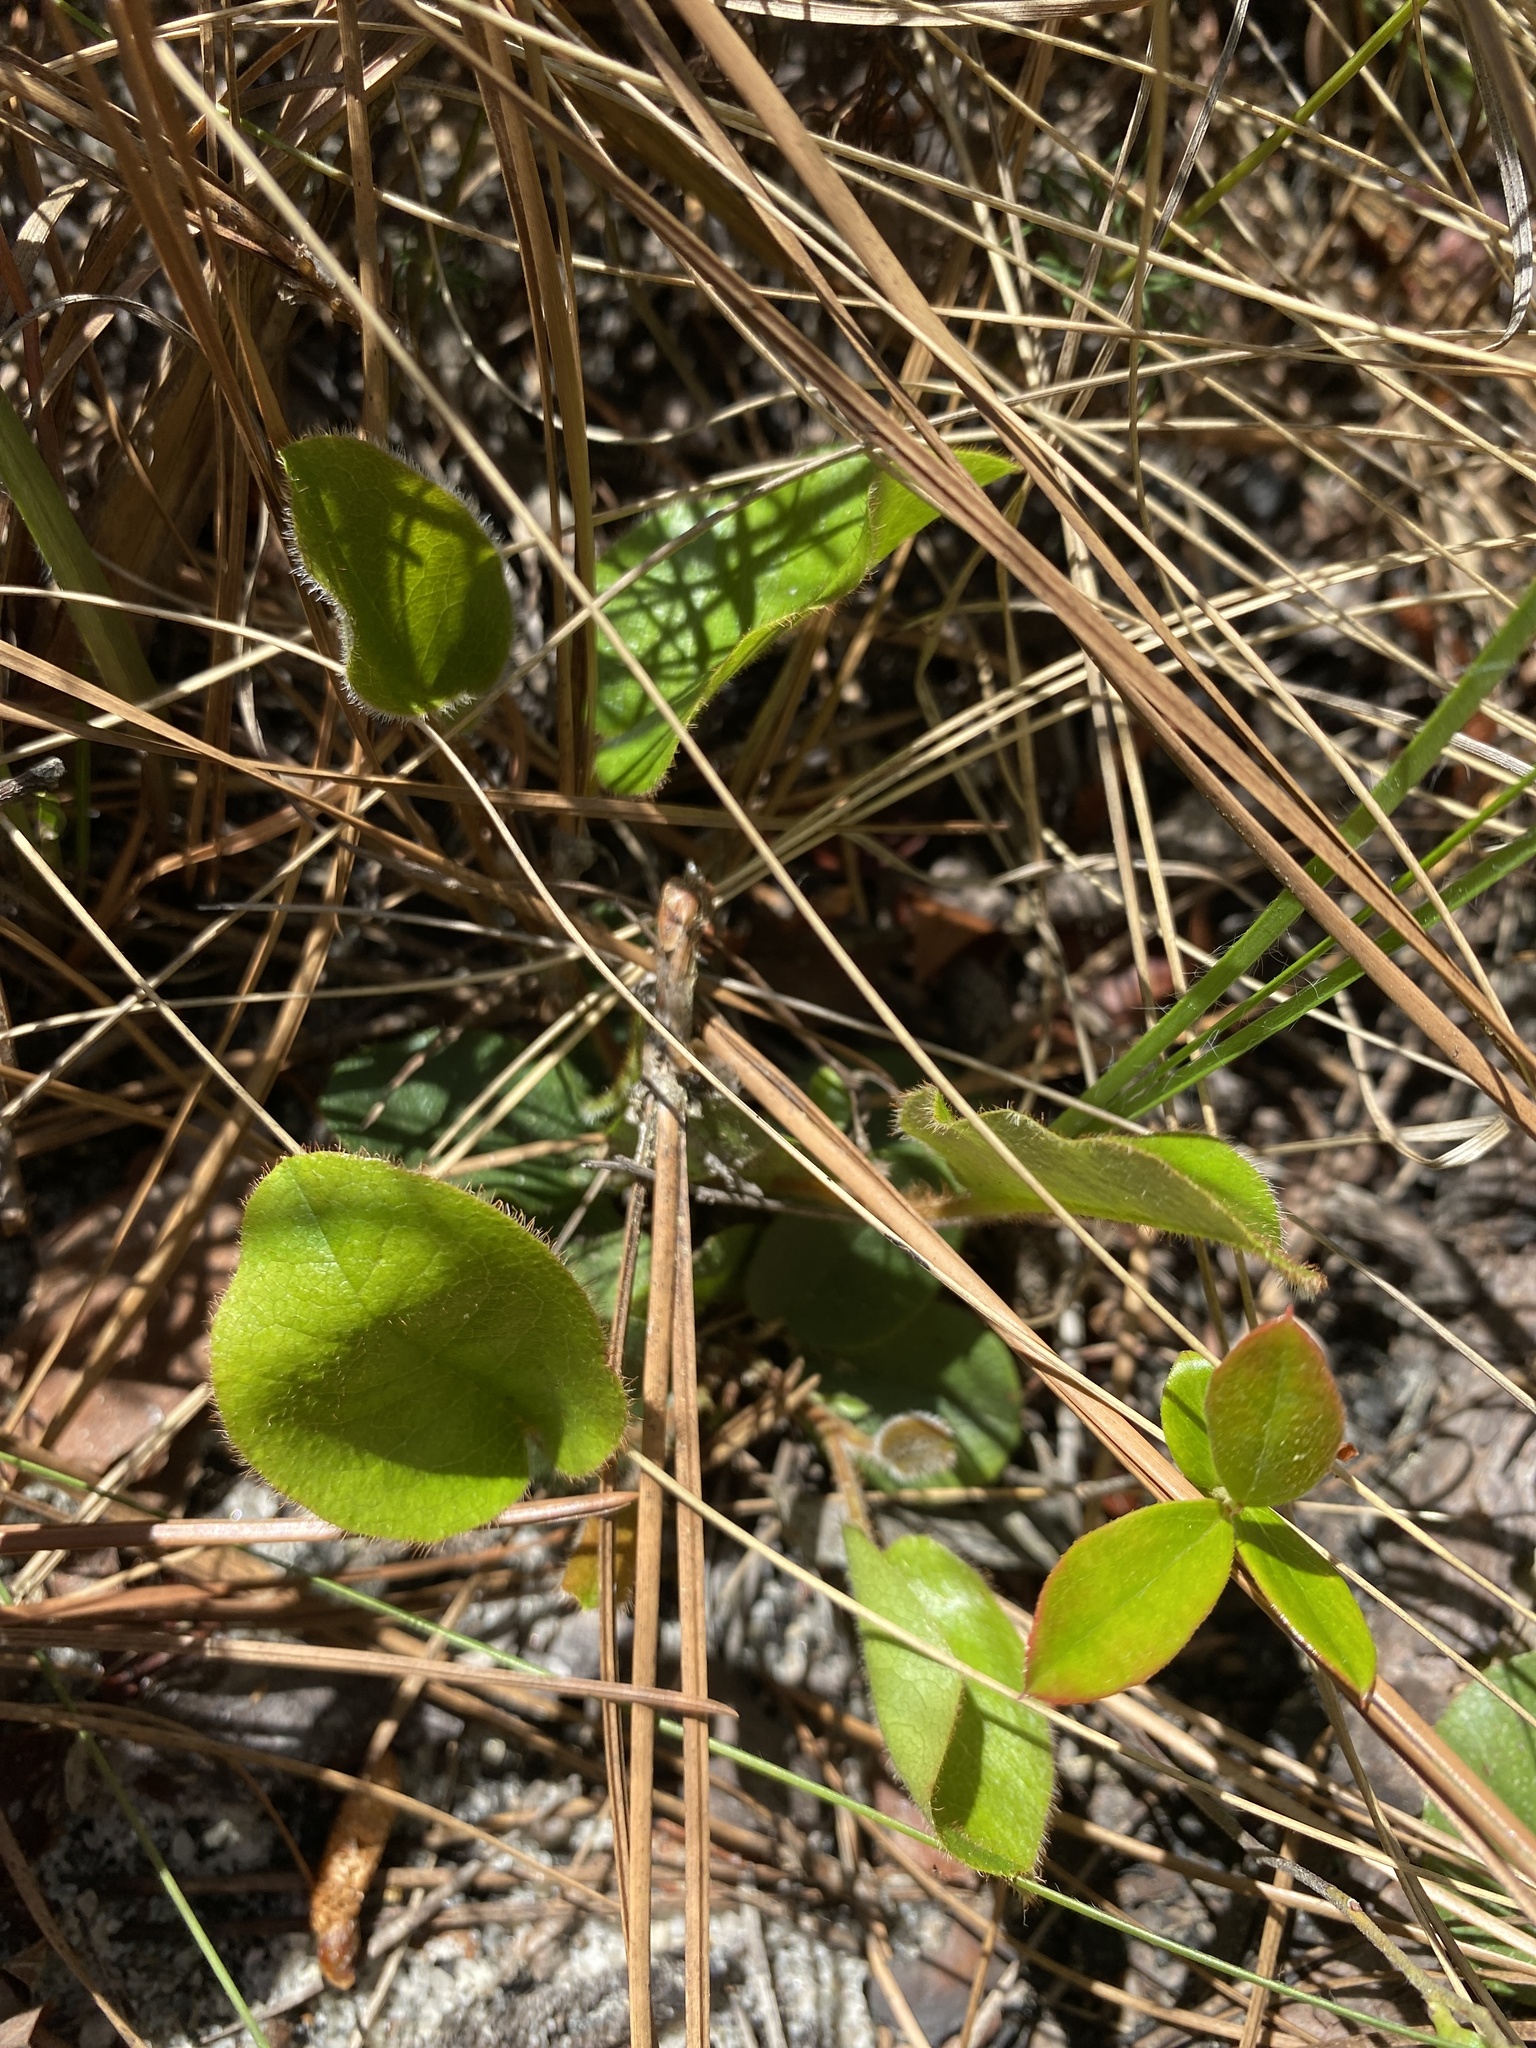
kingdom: Plantae
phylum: Tracheophyta
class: Magnoliopsida
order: Ericales
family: Ericaceae
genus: Epigaea
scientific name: Epigaea repens
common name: Gravelroot
